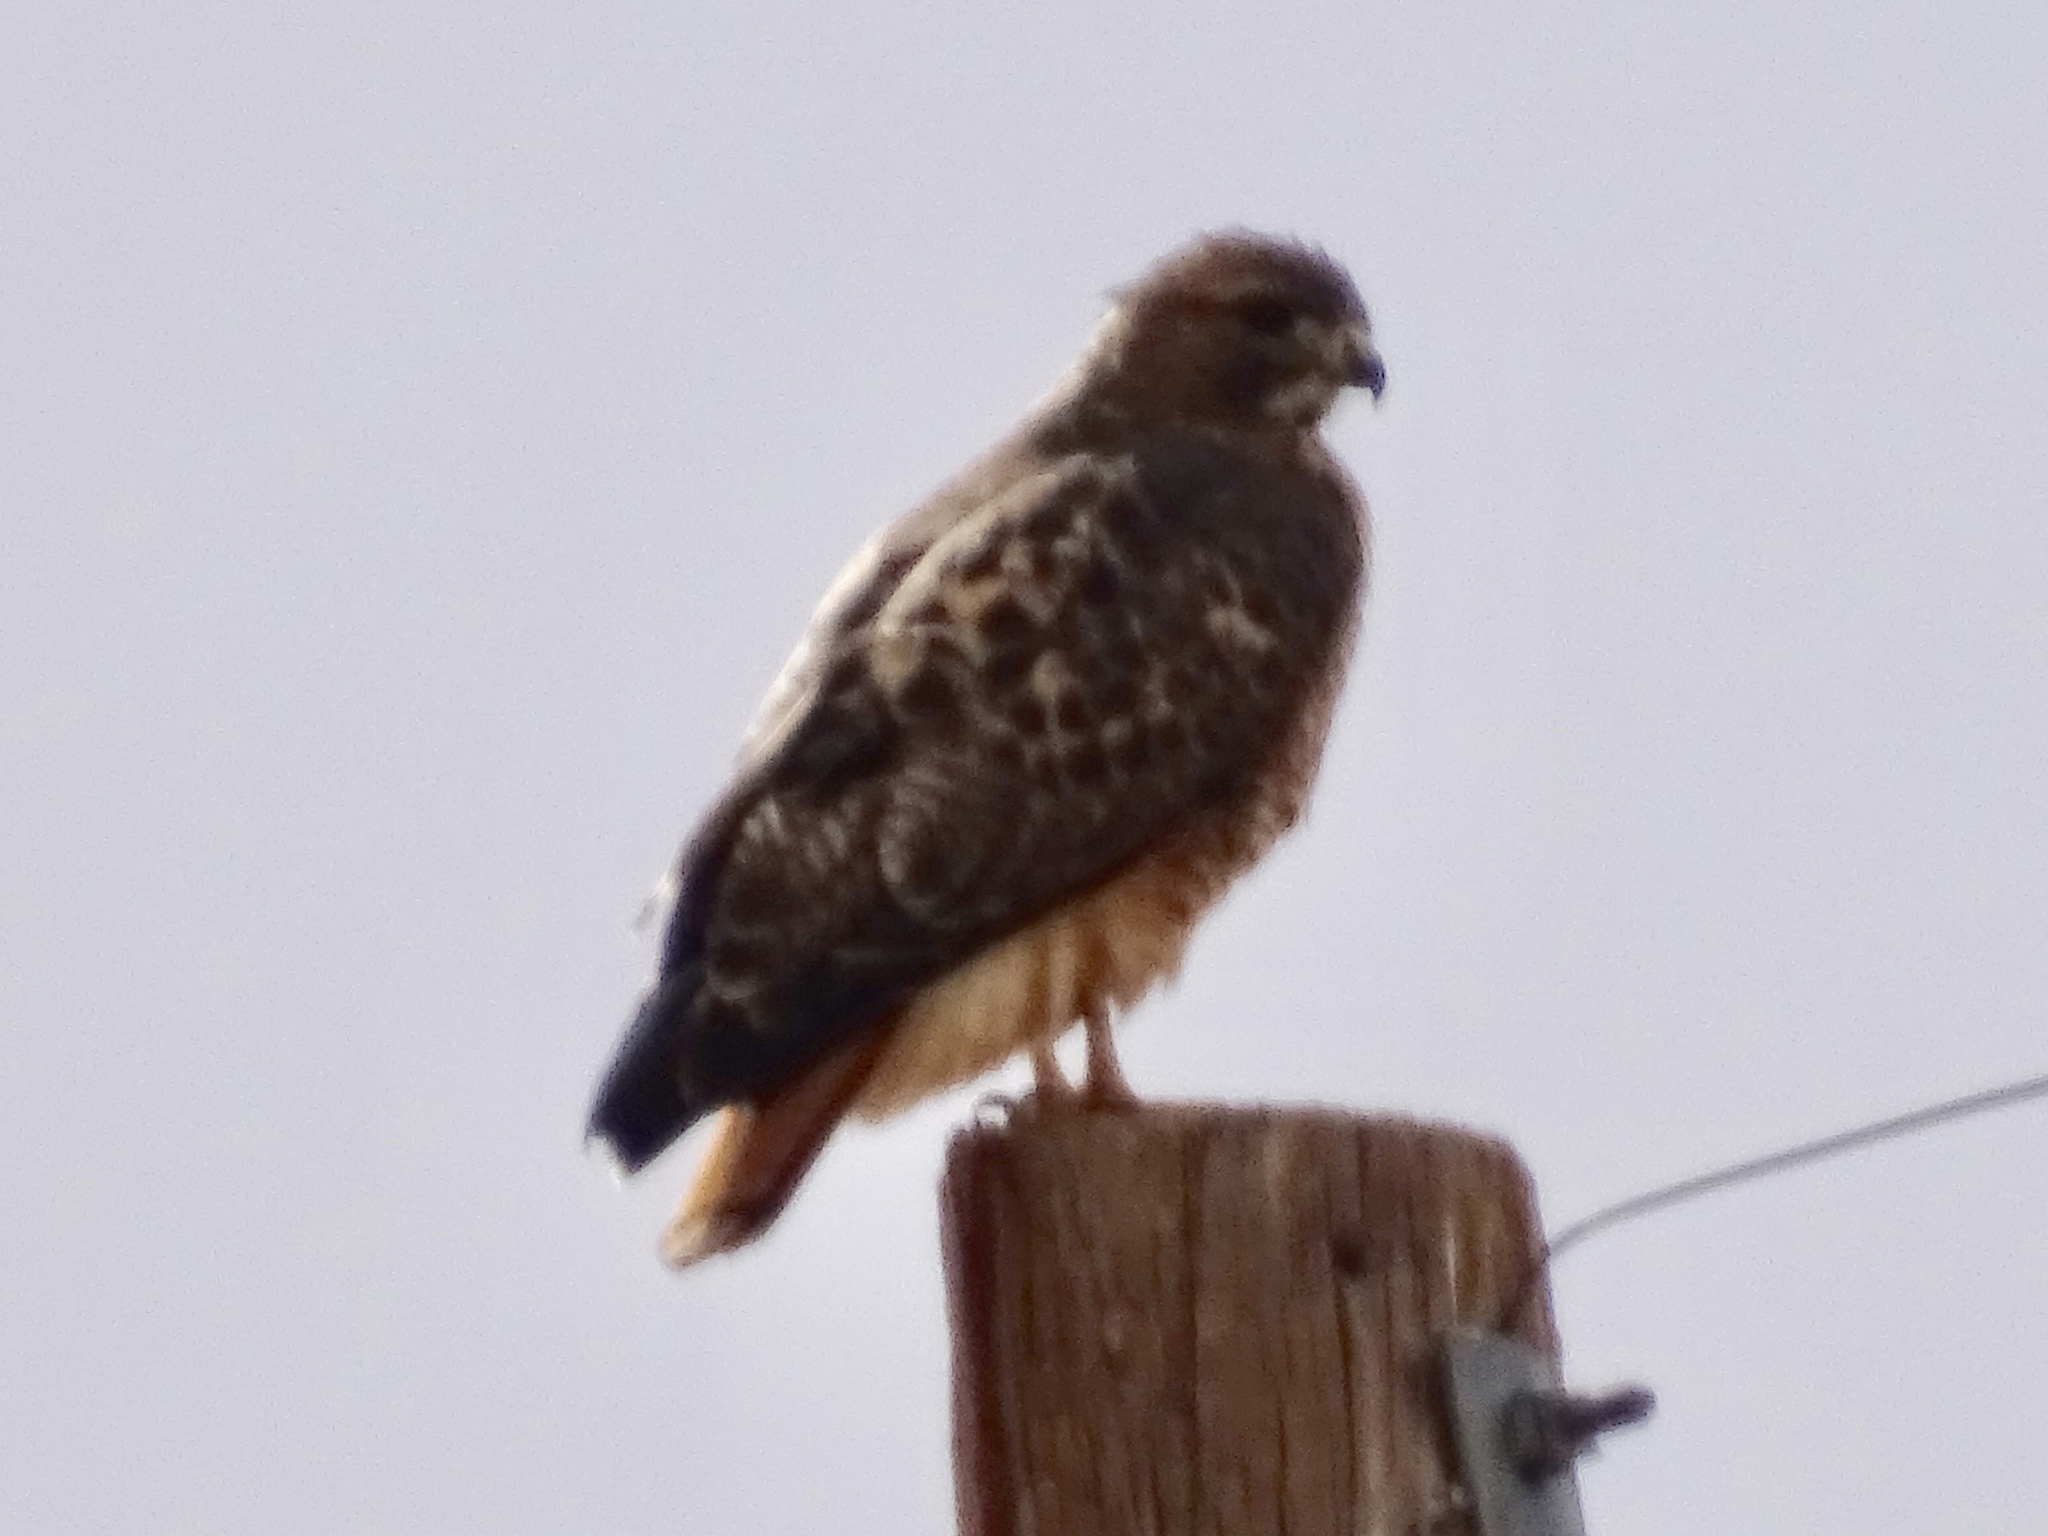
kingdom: Animalia
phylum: Chordata
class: Aves
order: Accipitriformes
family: Accipitridae
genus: Buteo
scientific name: Buteo jamaicensis
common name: Red-tailed hawk
